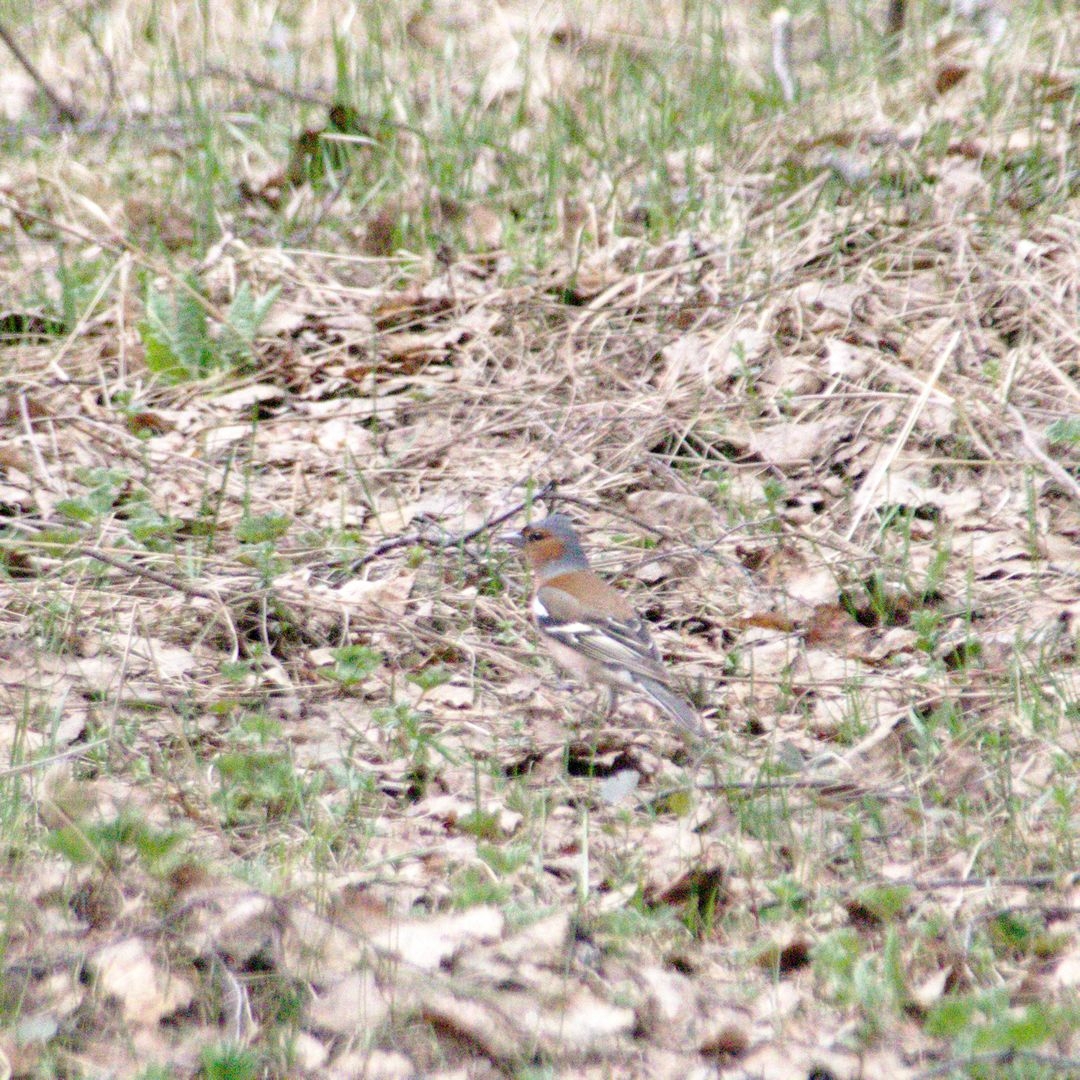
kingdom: Animalia
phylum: Chordata
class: Aves
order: Passeriformes
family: Fringillidae
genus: Fringilla
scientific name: Fringilla coelebs
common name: Common chaffinch
